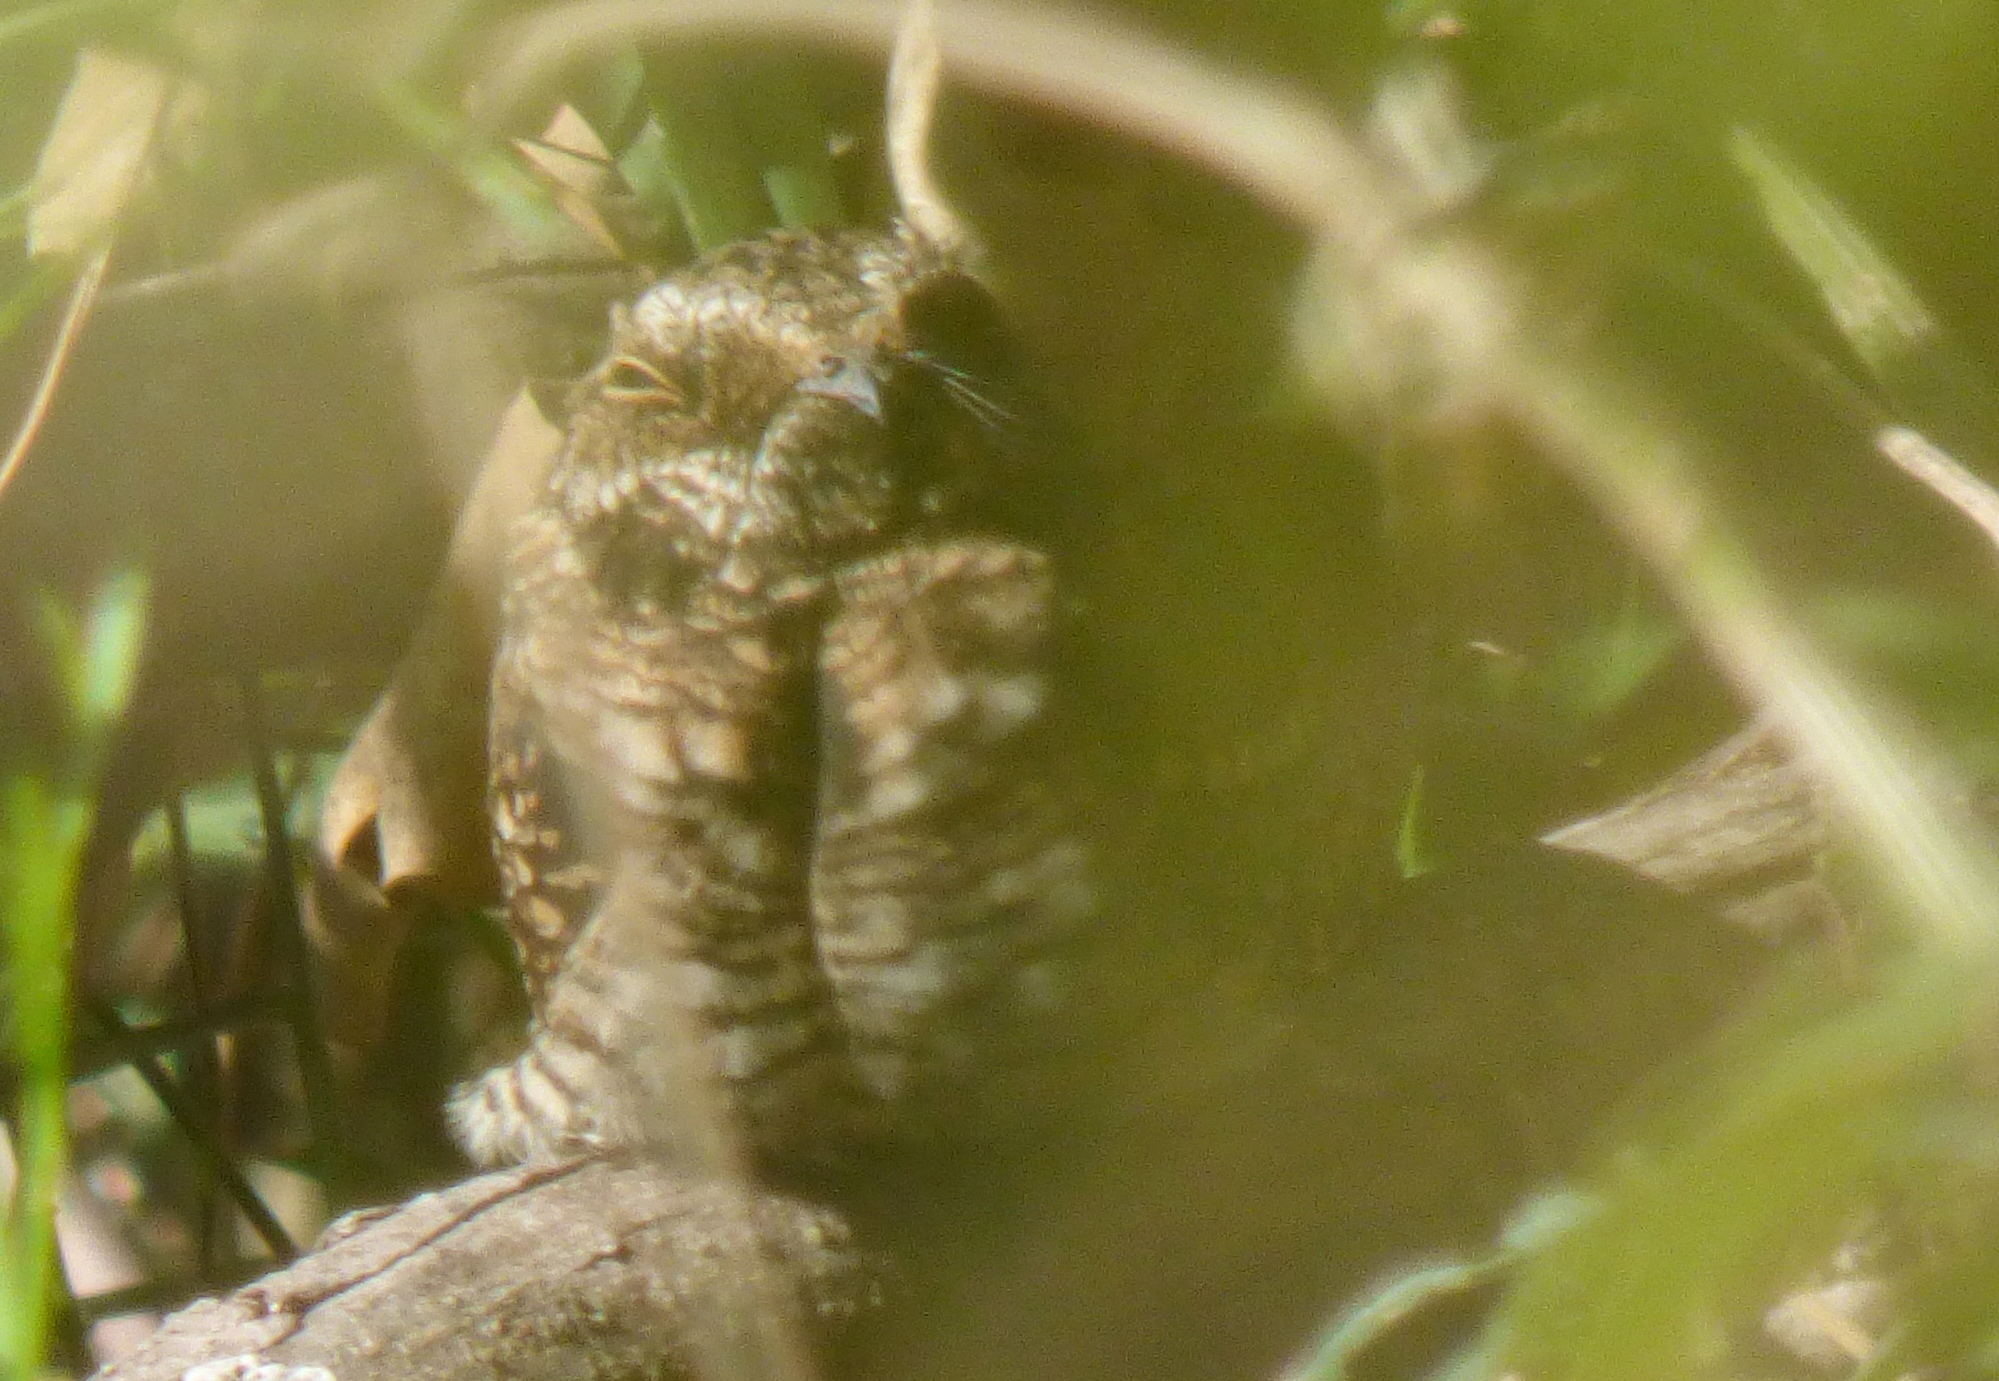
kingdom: Animalia
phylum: Chordata
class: Aves
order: Caprimulgiformes
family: Caprimulgidae
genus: Hydropsalis
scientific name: Hydropsalis torquata
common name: Scissor-tailed nightjar
